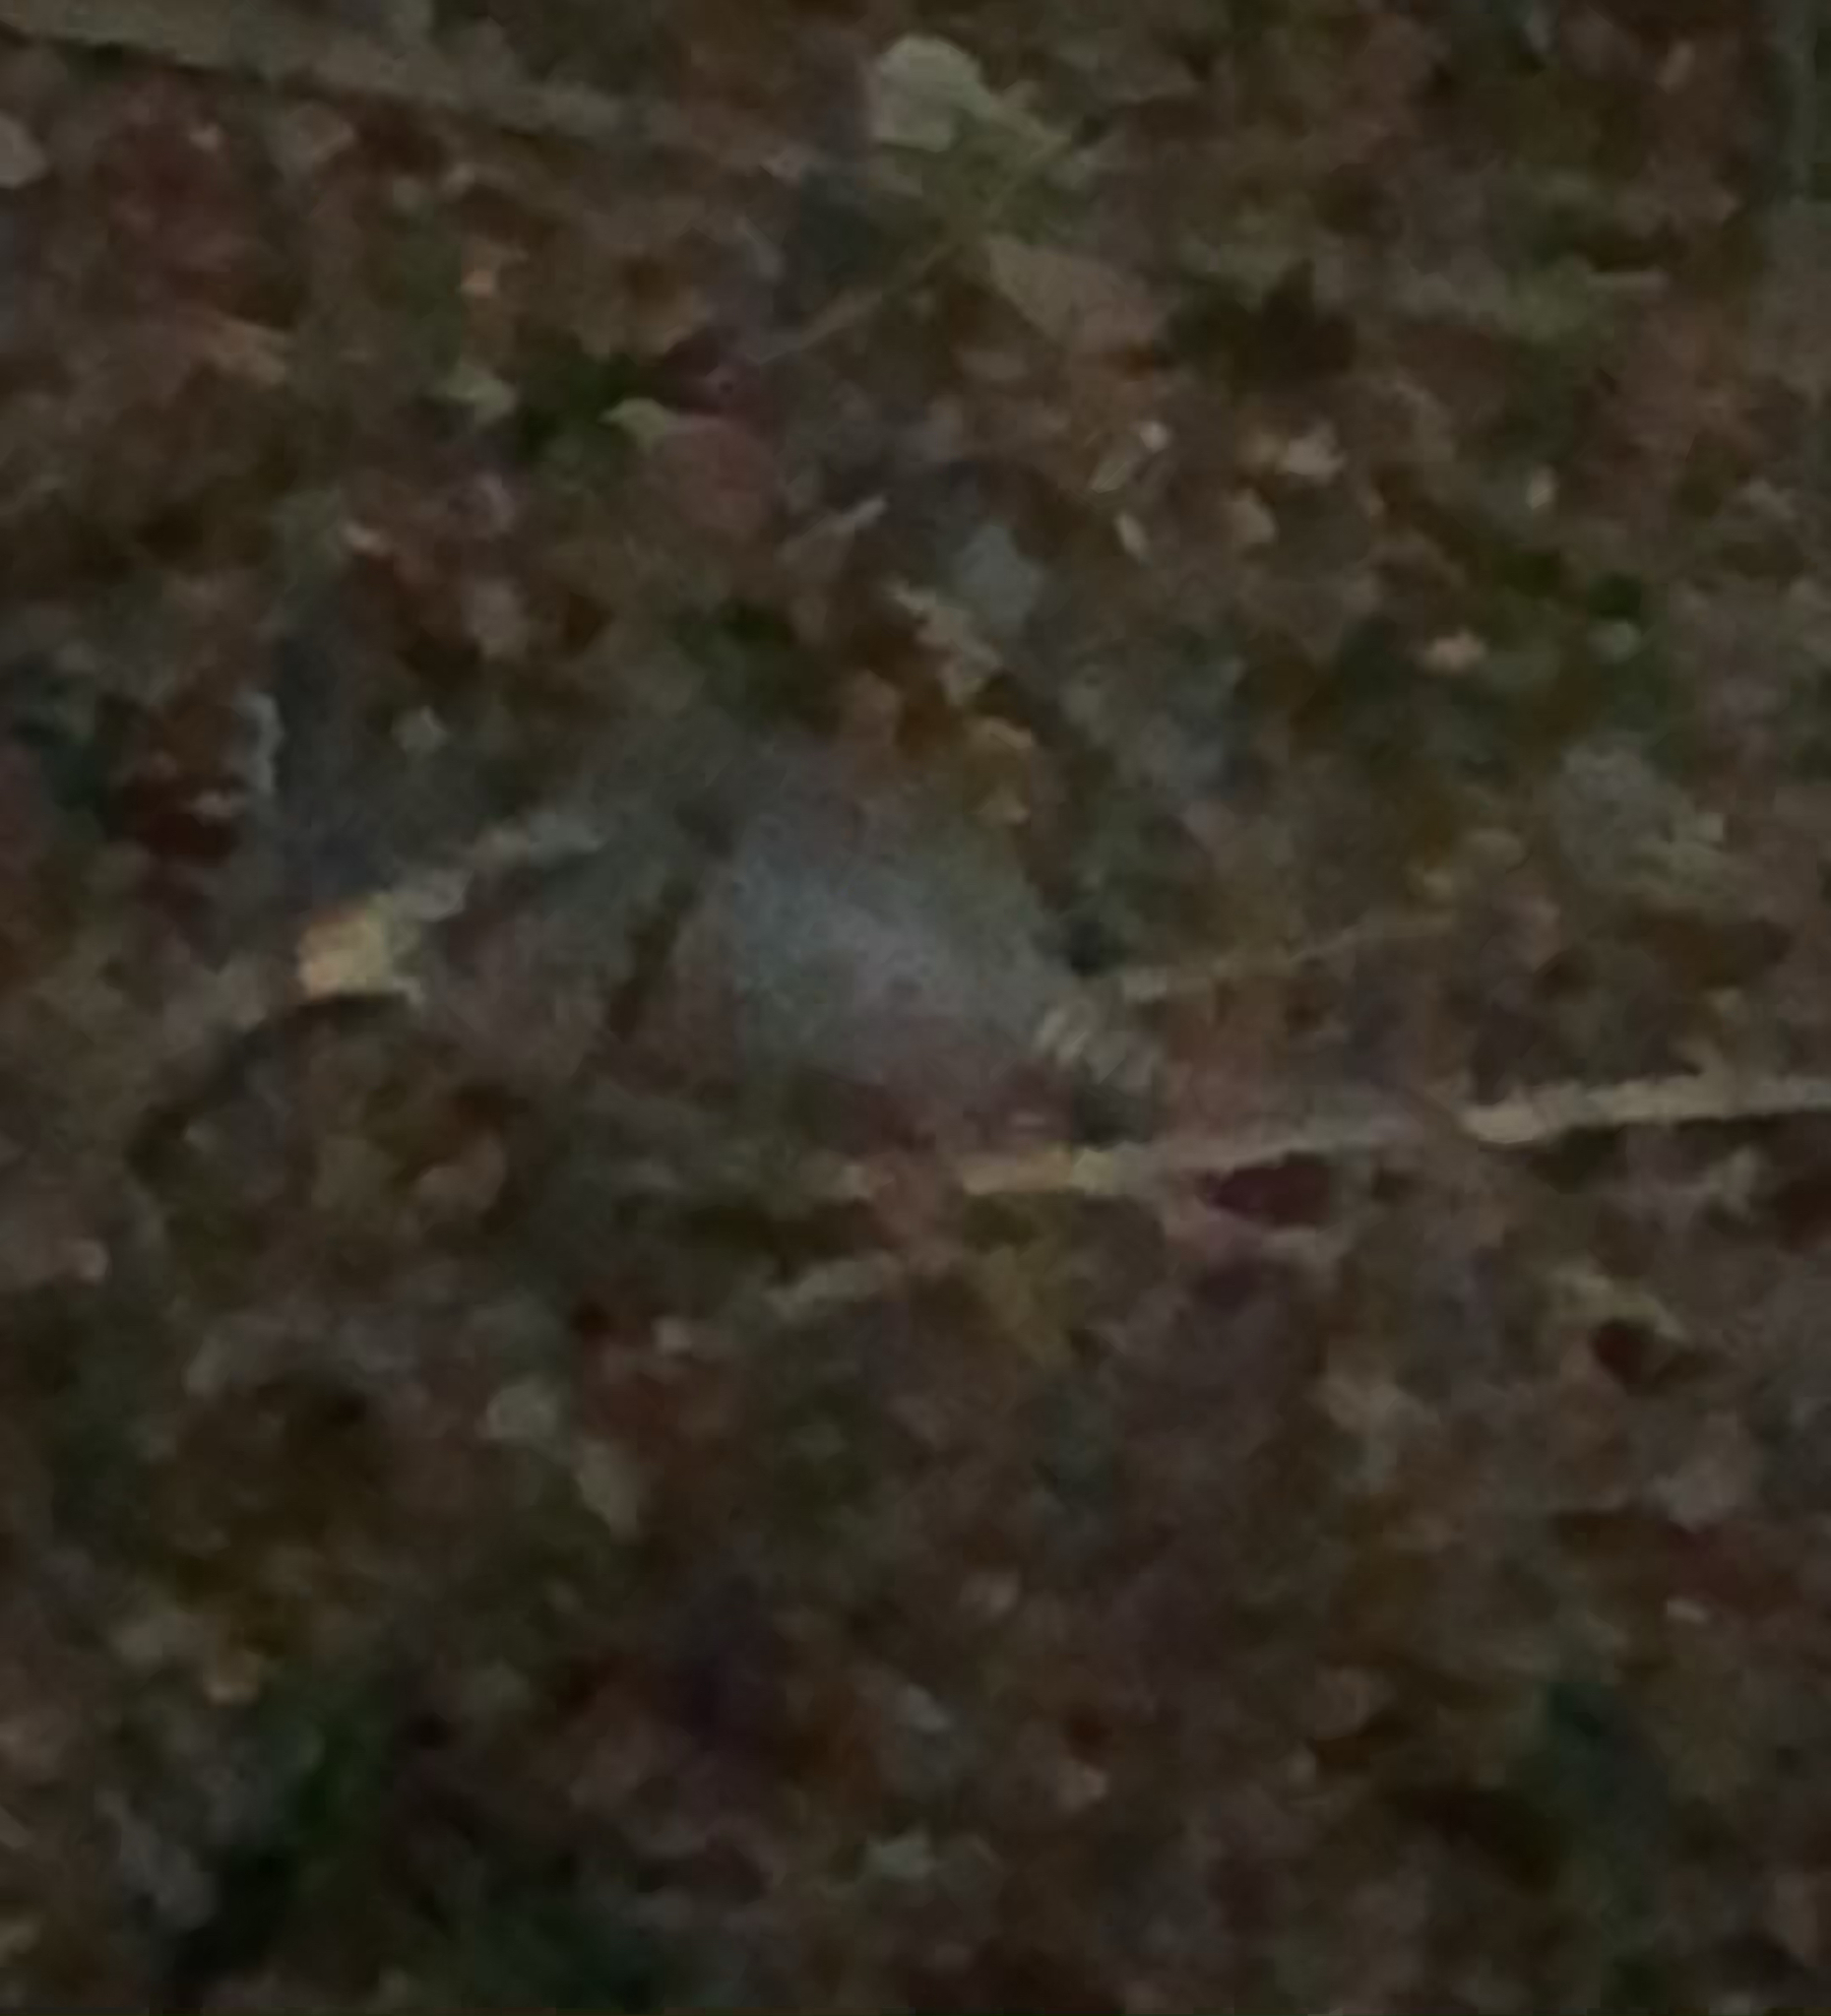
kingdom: Animalia
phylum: Chordata
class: Mammalia
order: Cingulata
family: Dasypodidae
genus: Dasypus
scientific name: Dasypus novemcinctus
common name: Nine-banded armadillo
